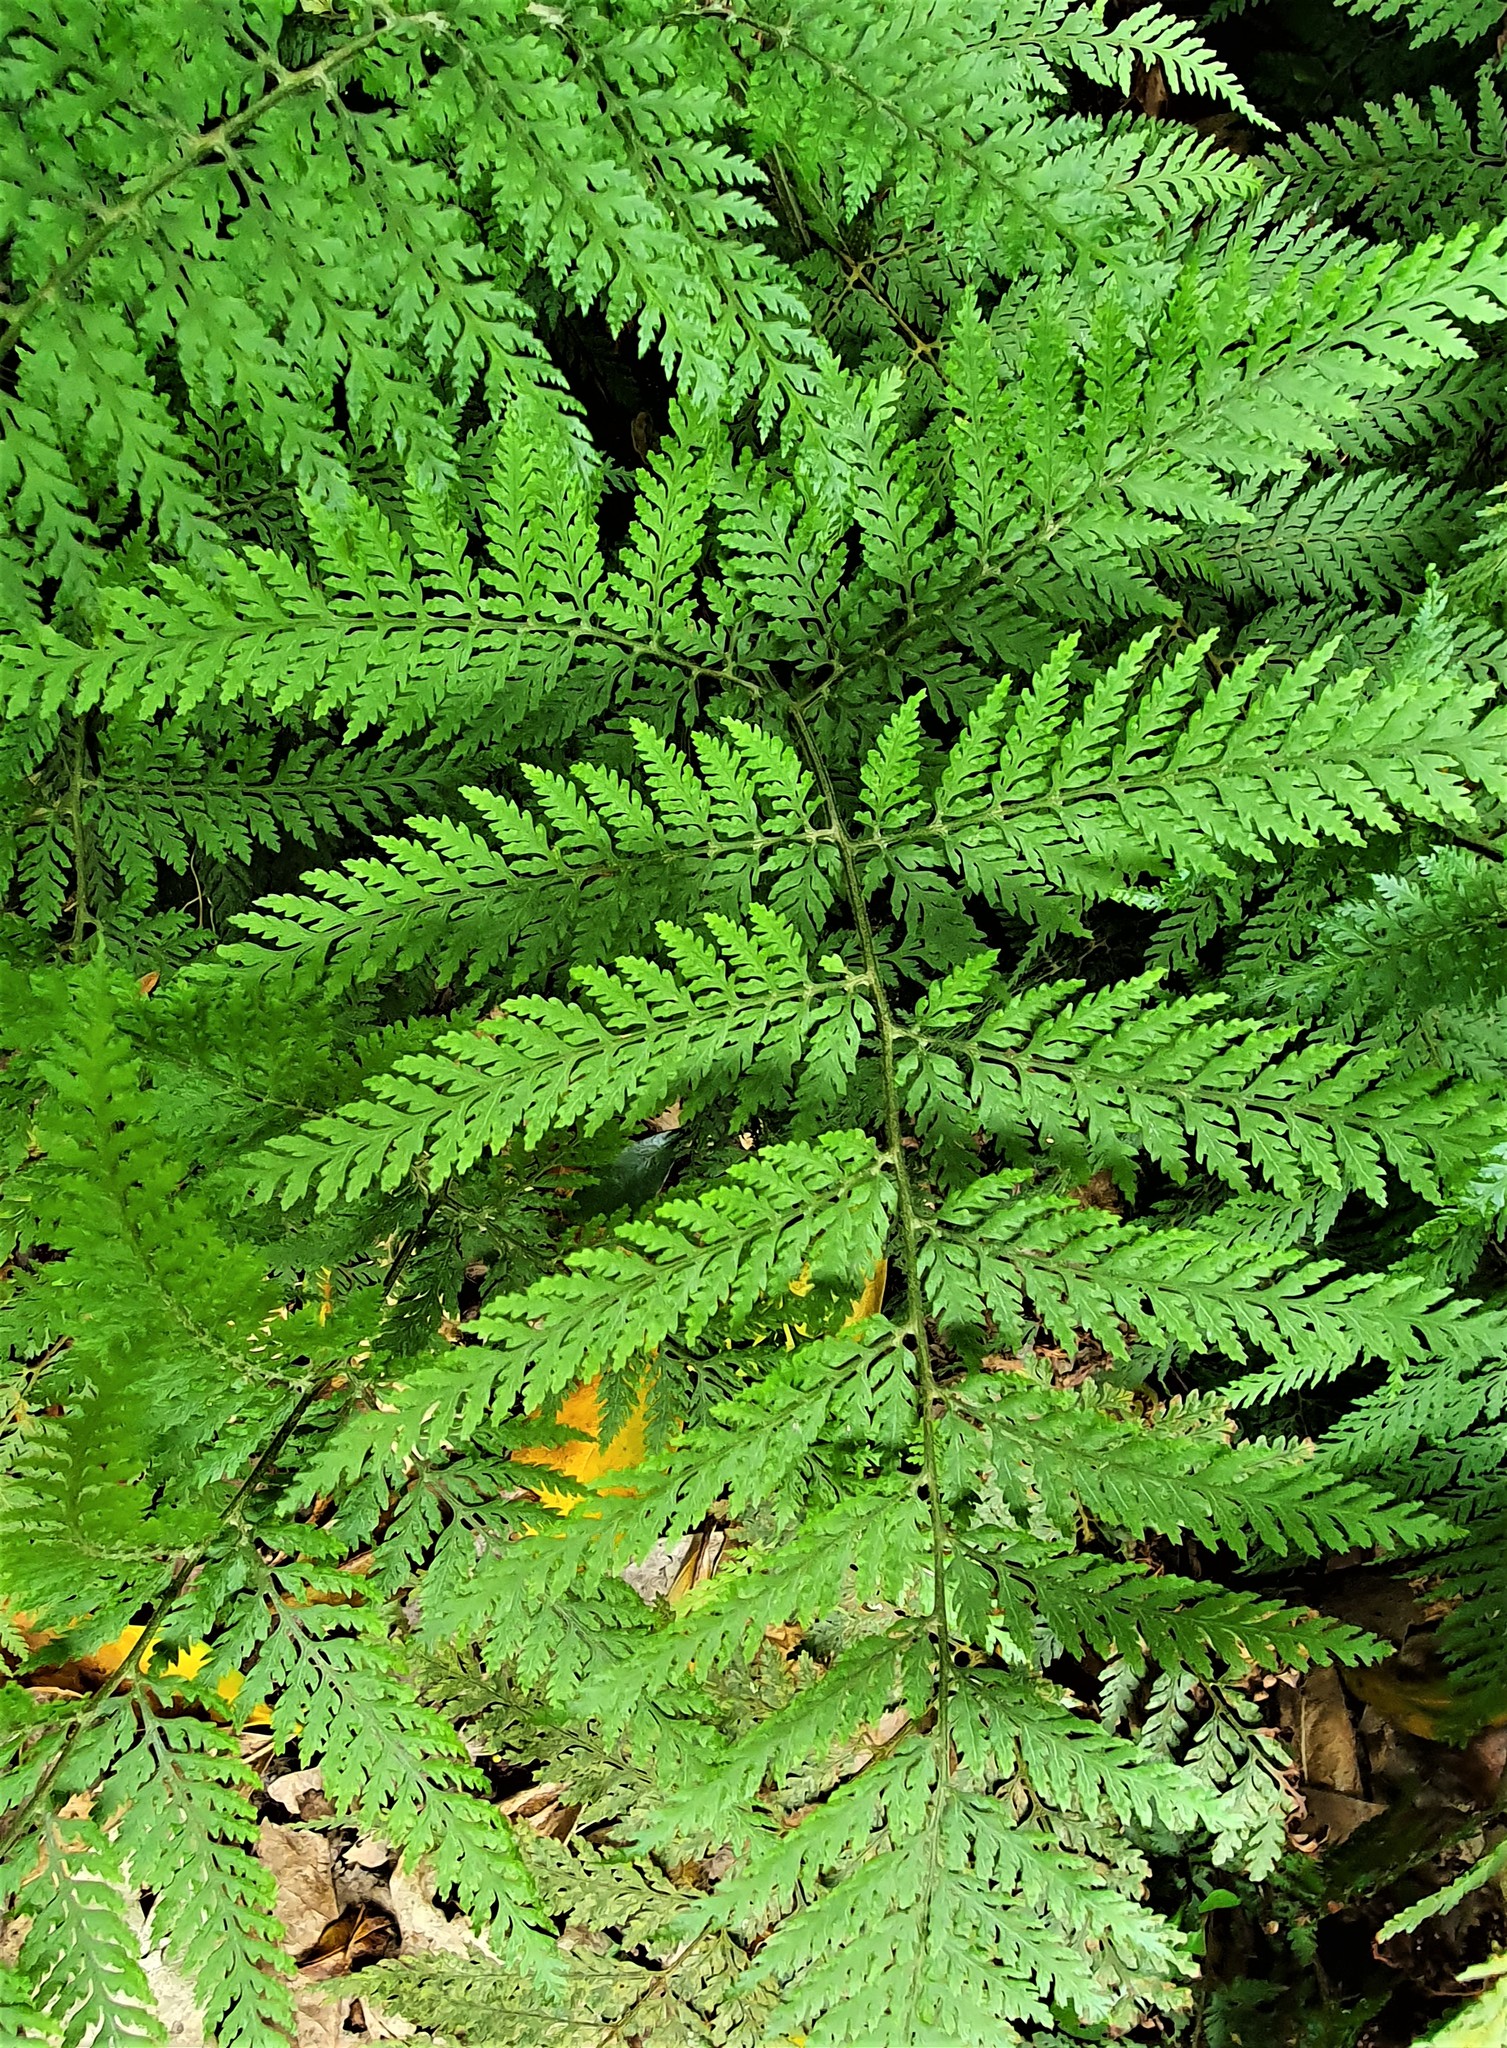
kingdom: Plantae
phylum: Tracheophyta
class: Polypodiopsida
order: Polypodiales
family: Dryopteridaceae
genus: Parapolystichum
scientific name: Parapolystichum microsorum
